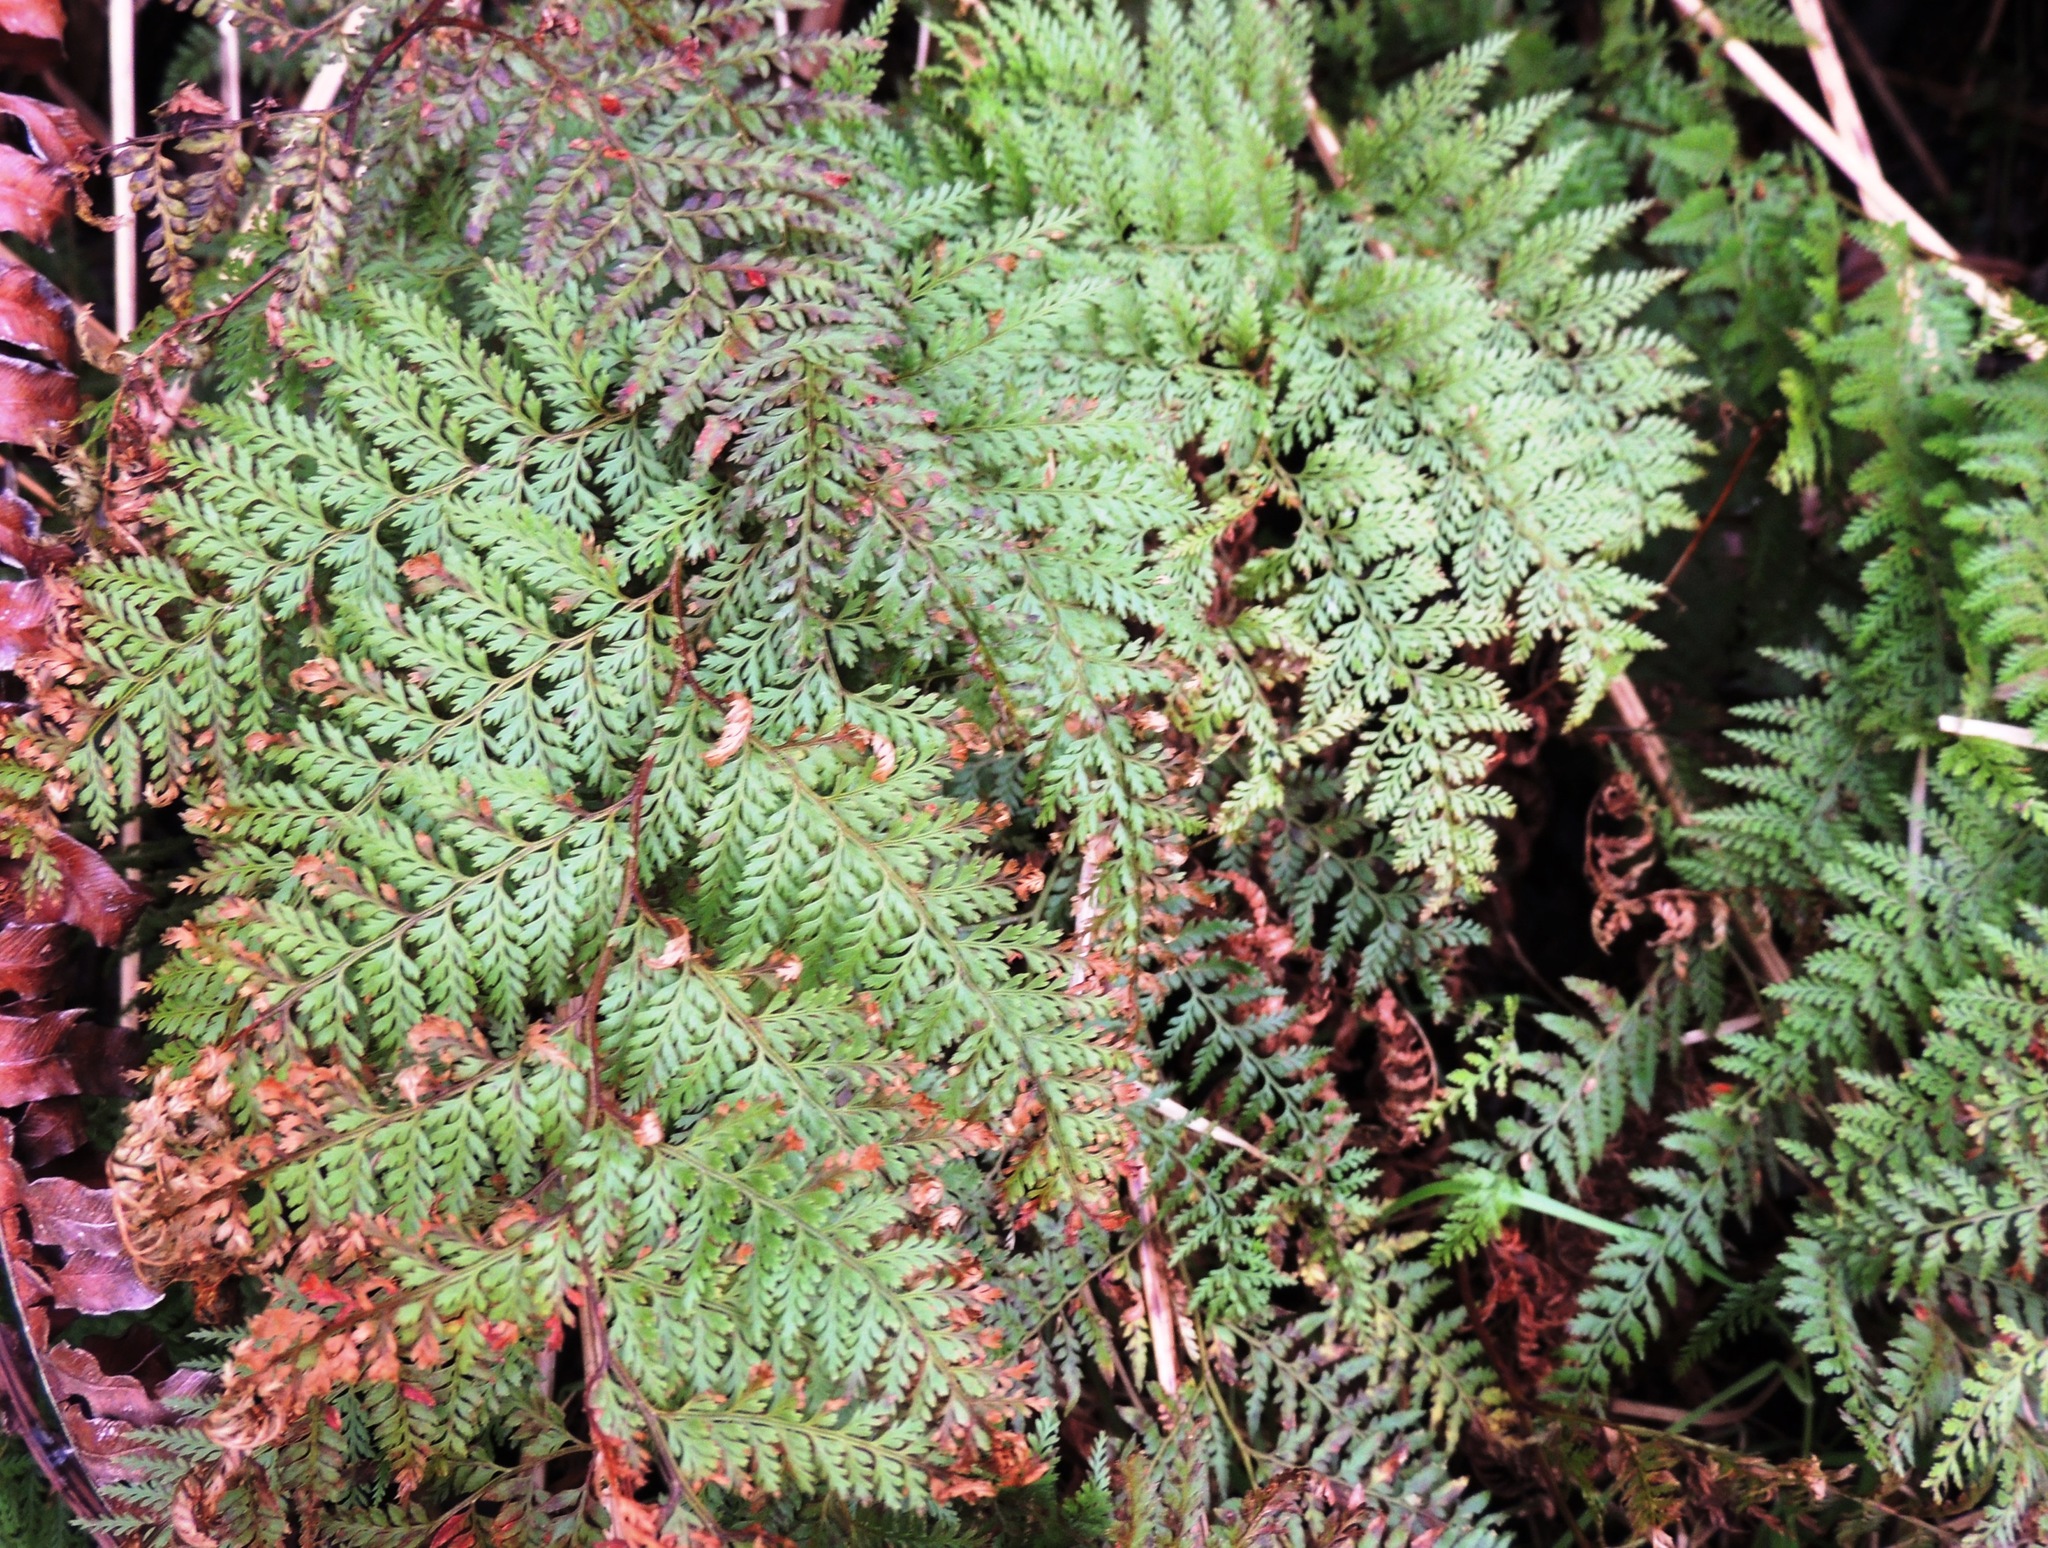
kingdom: Plantae
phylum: Tracheophyta
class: Polypodiopsida
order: Polypodiales
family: Dennstaedtiaceae
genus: Paesia
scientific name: Paesia scaberula
